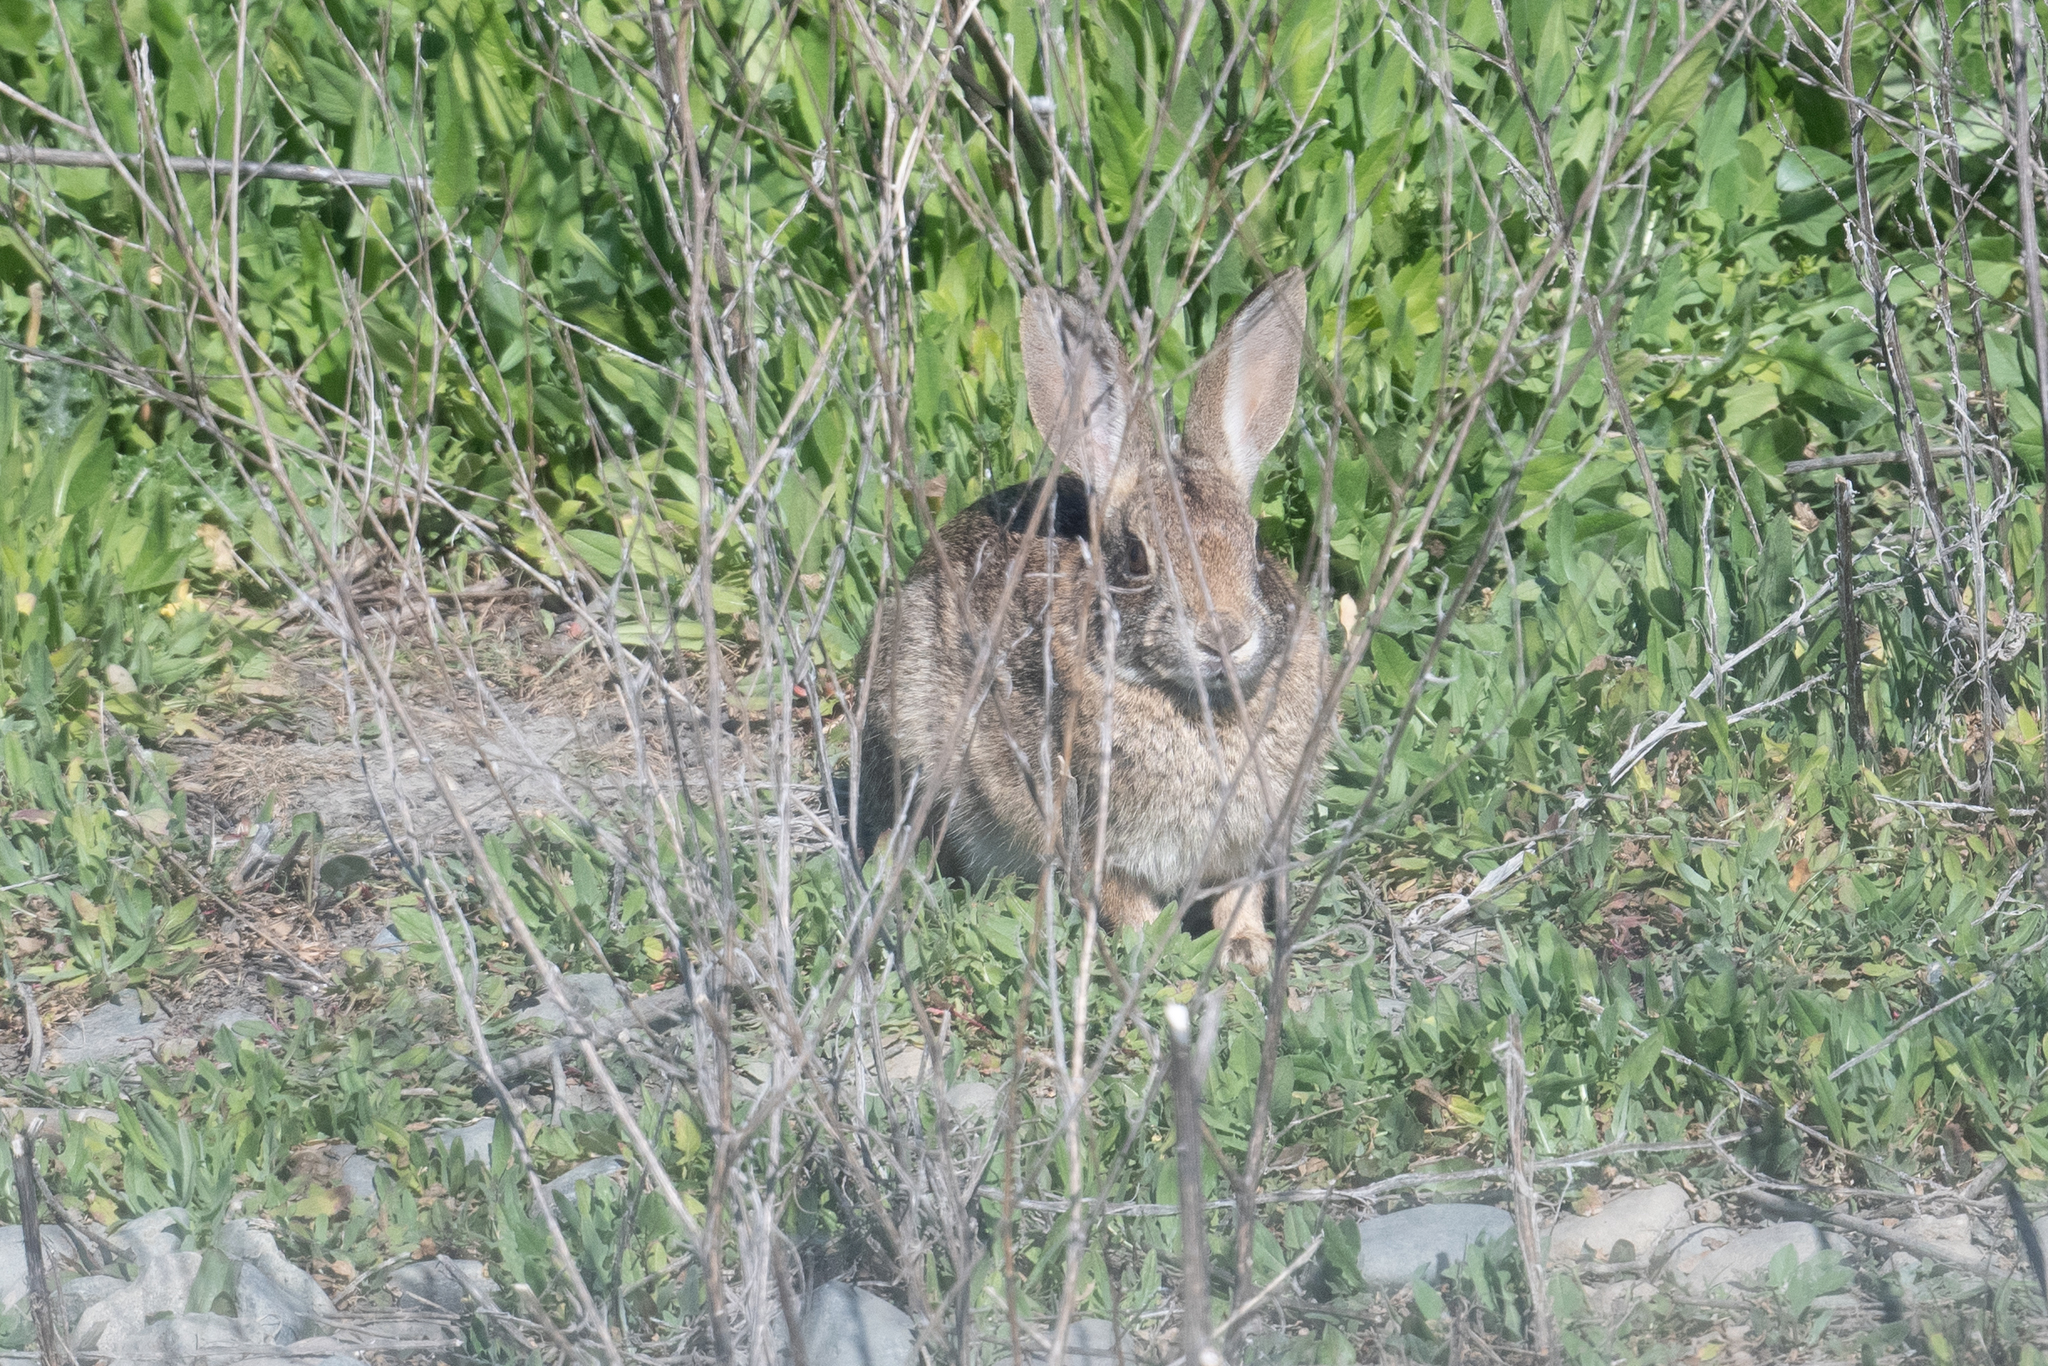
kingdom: Animalia
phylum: Chordata
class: Mammalia
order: Lagomorpha
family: Leporidae
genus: Sylvilagus
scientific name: Sylvilagus audubonii
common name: Desert cottontail
